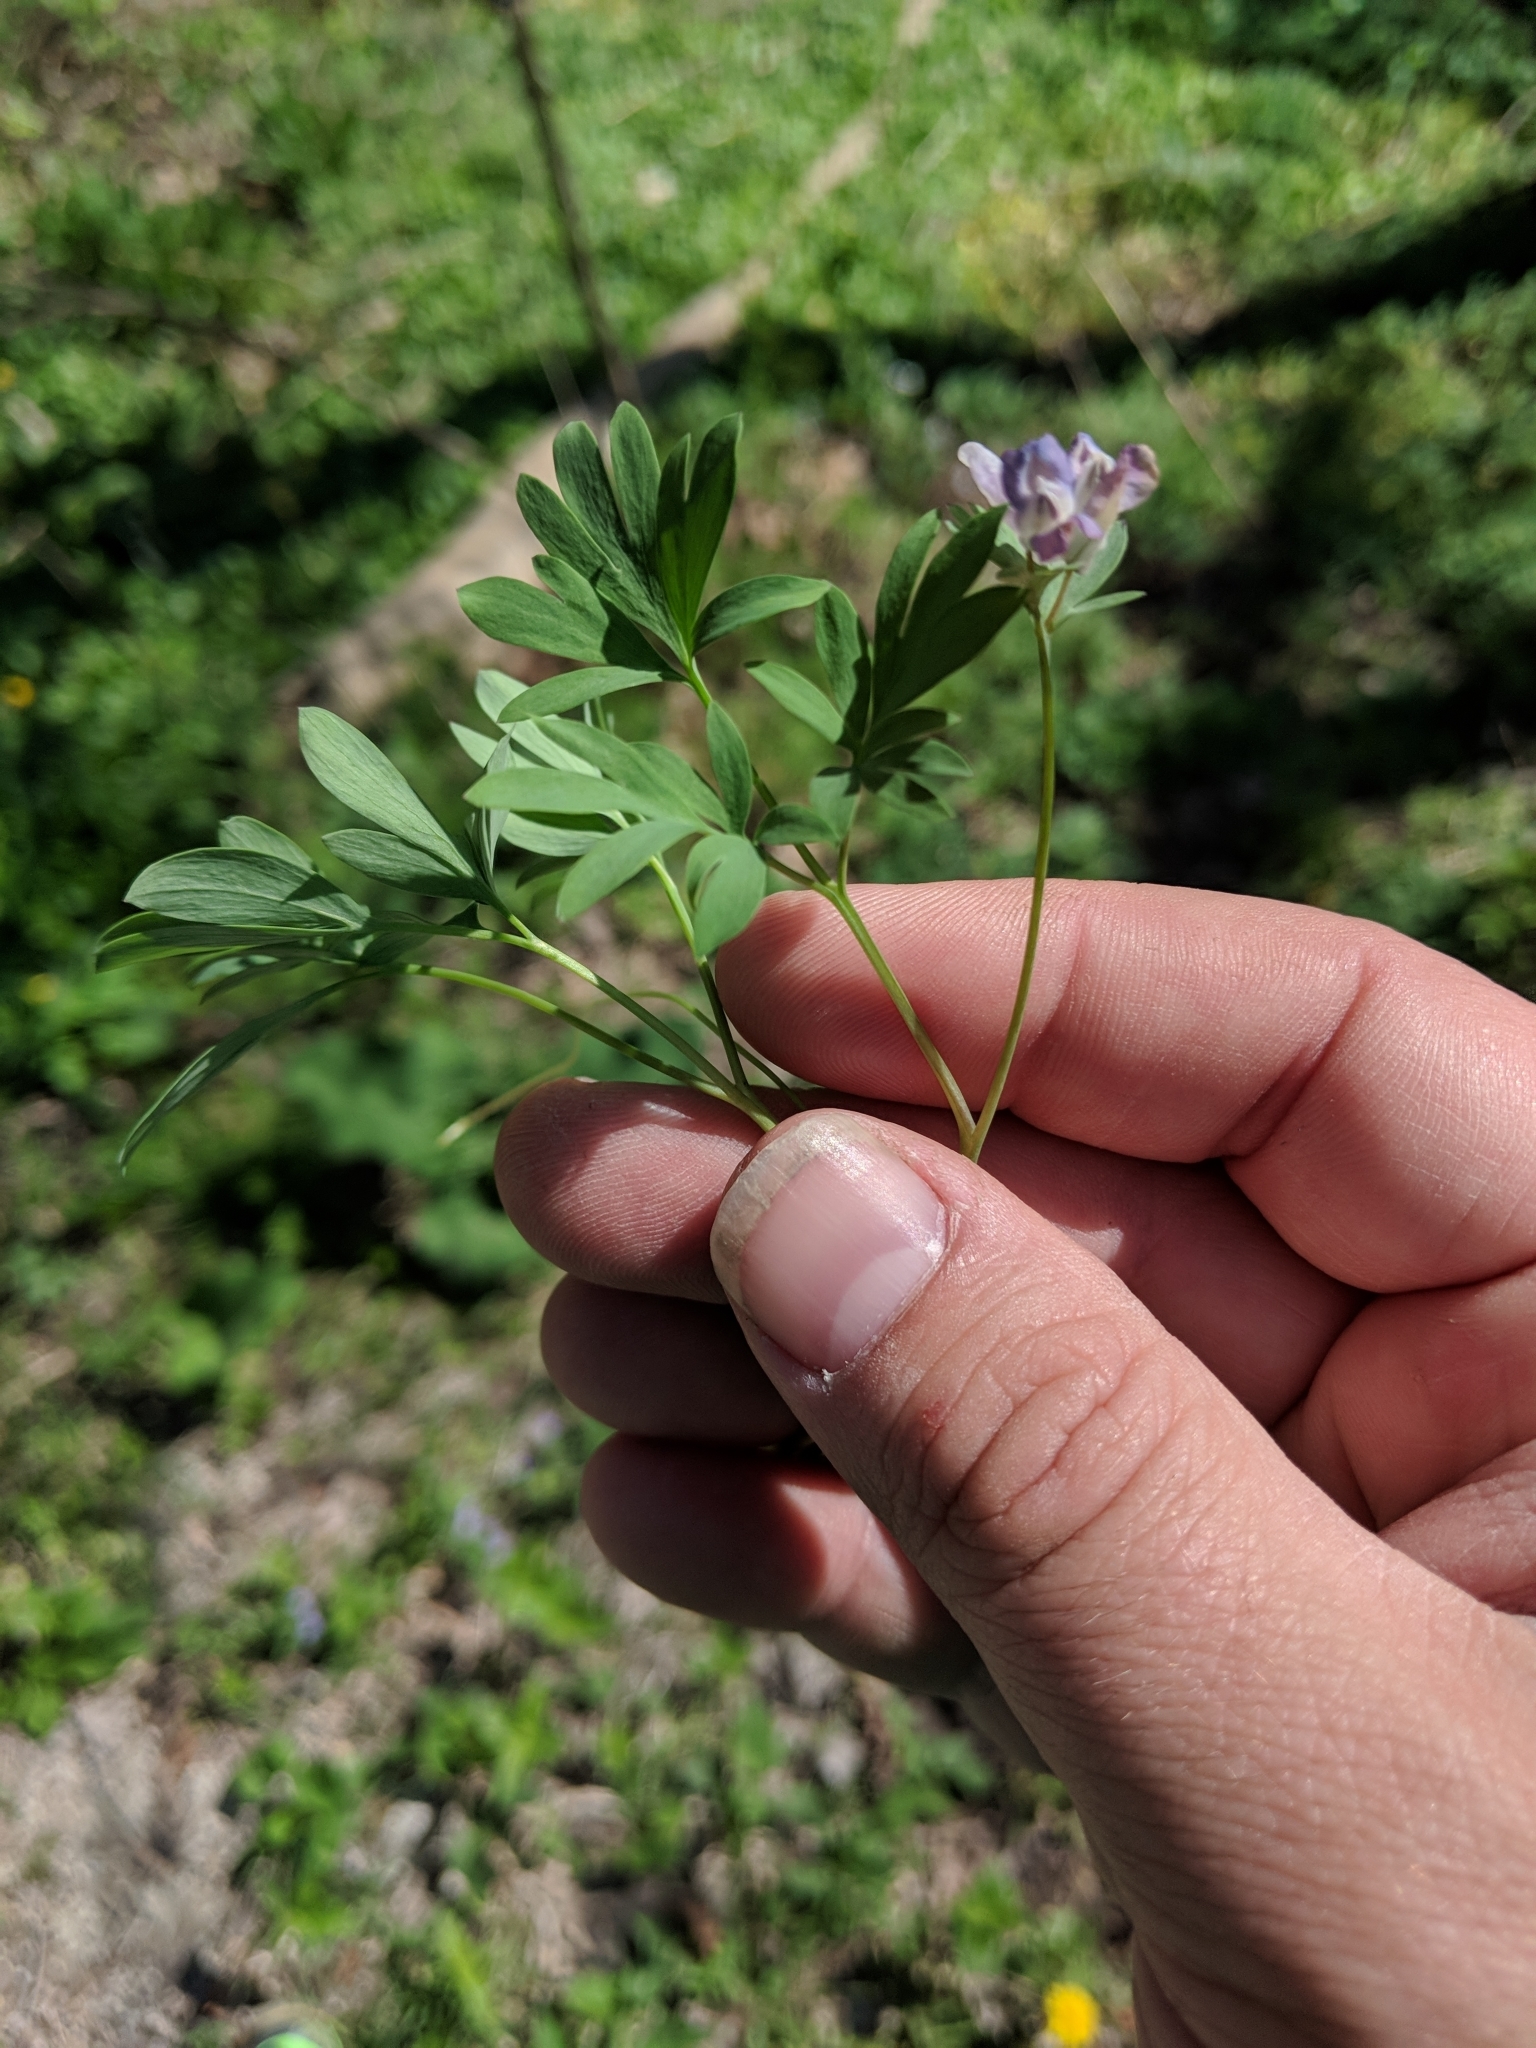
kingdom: Plantae
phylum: Tracheophyta
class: Magnoliopsida
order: Ranunculales
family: Papaveraceae
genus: Corydalis
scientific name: Corydalis solida
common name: Bird-in-a-bush
